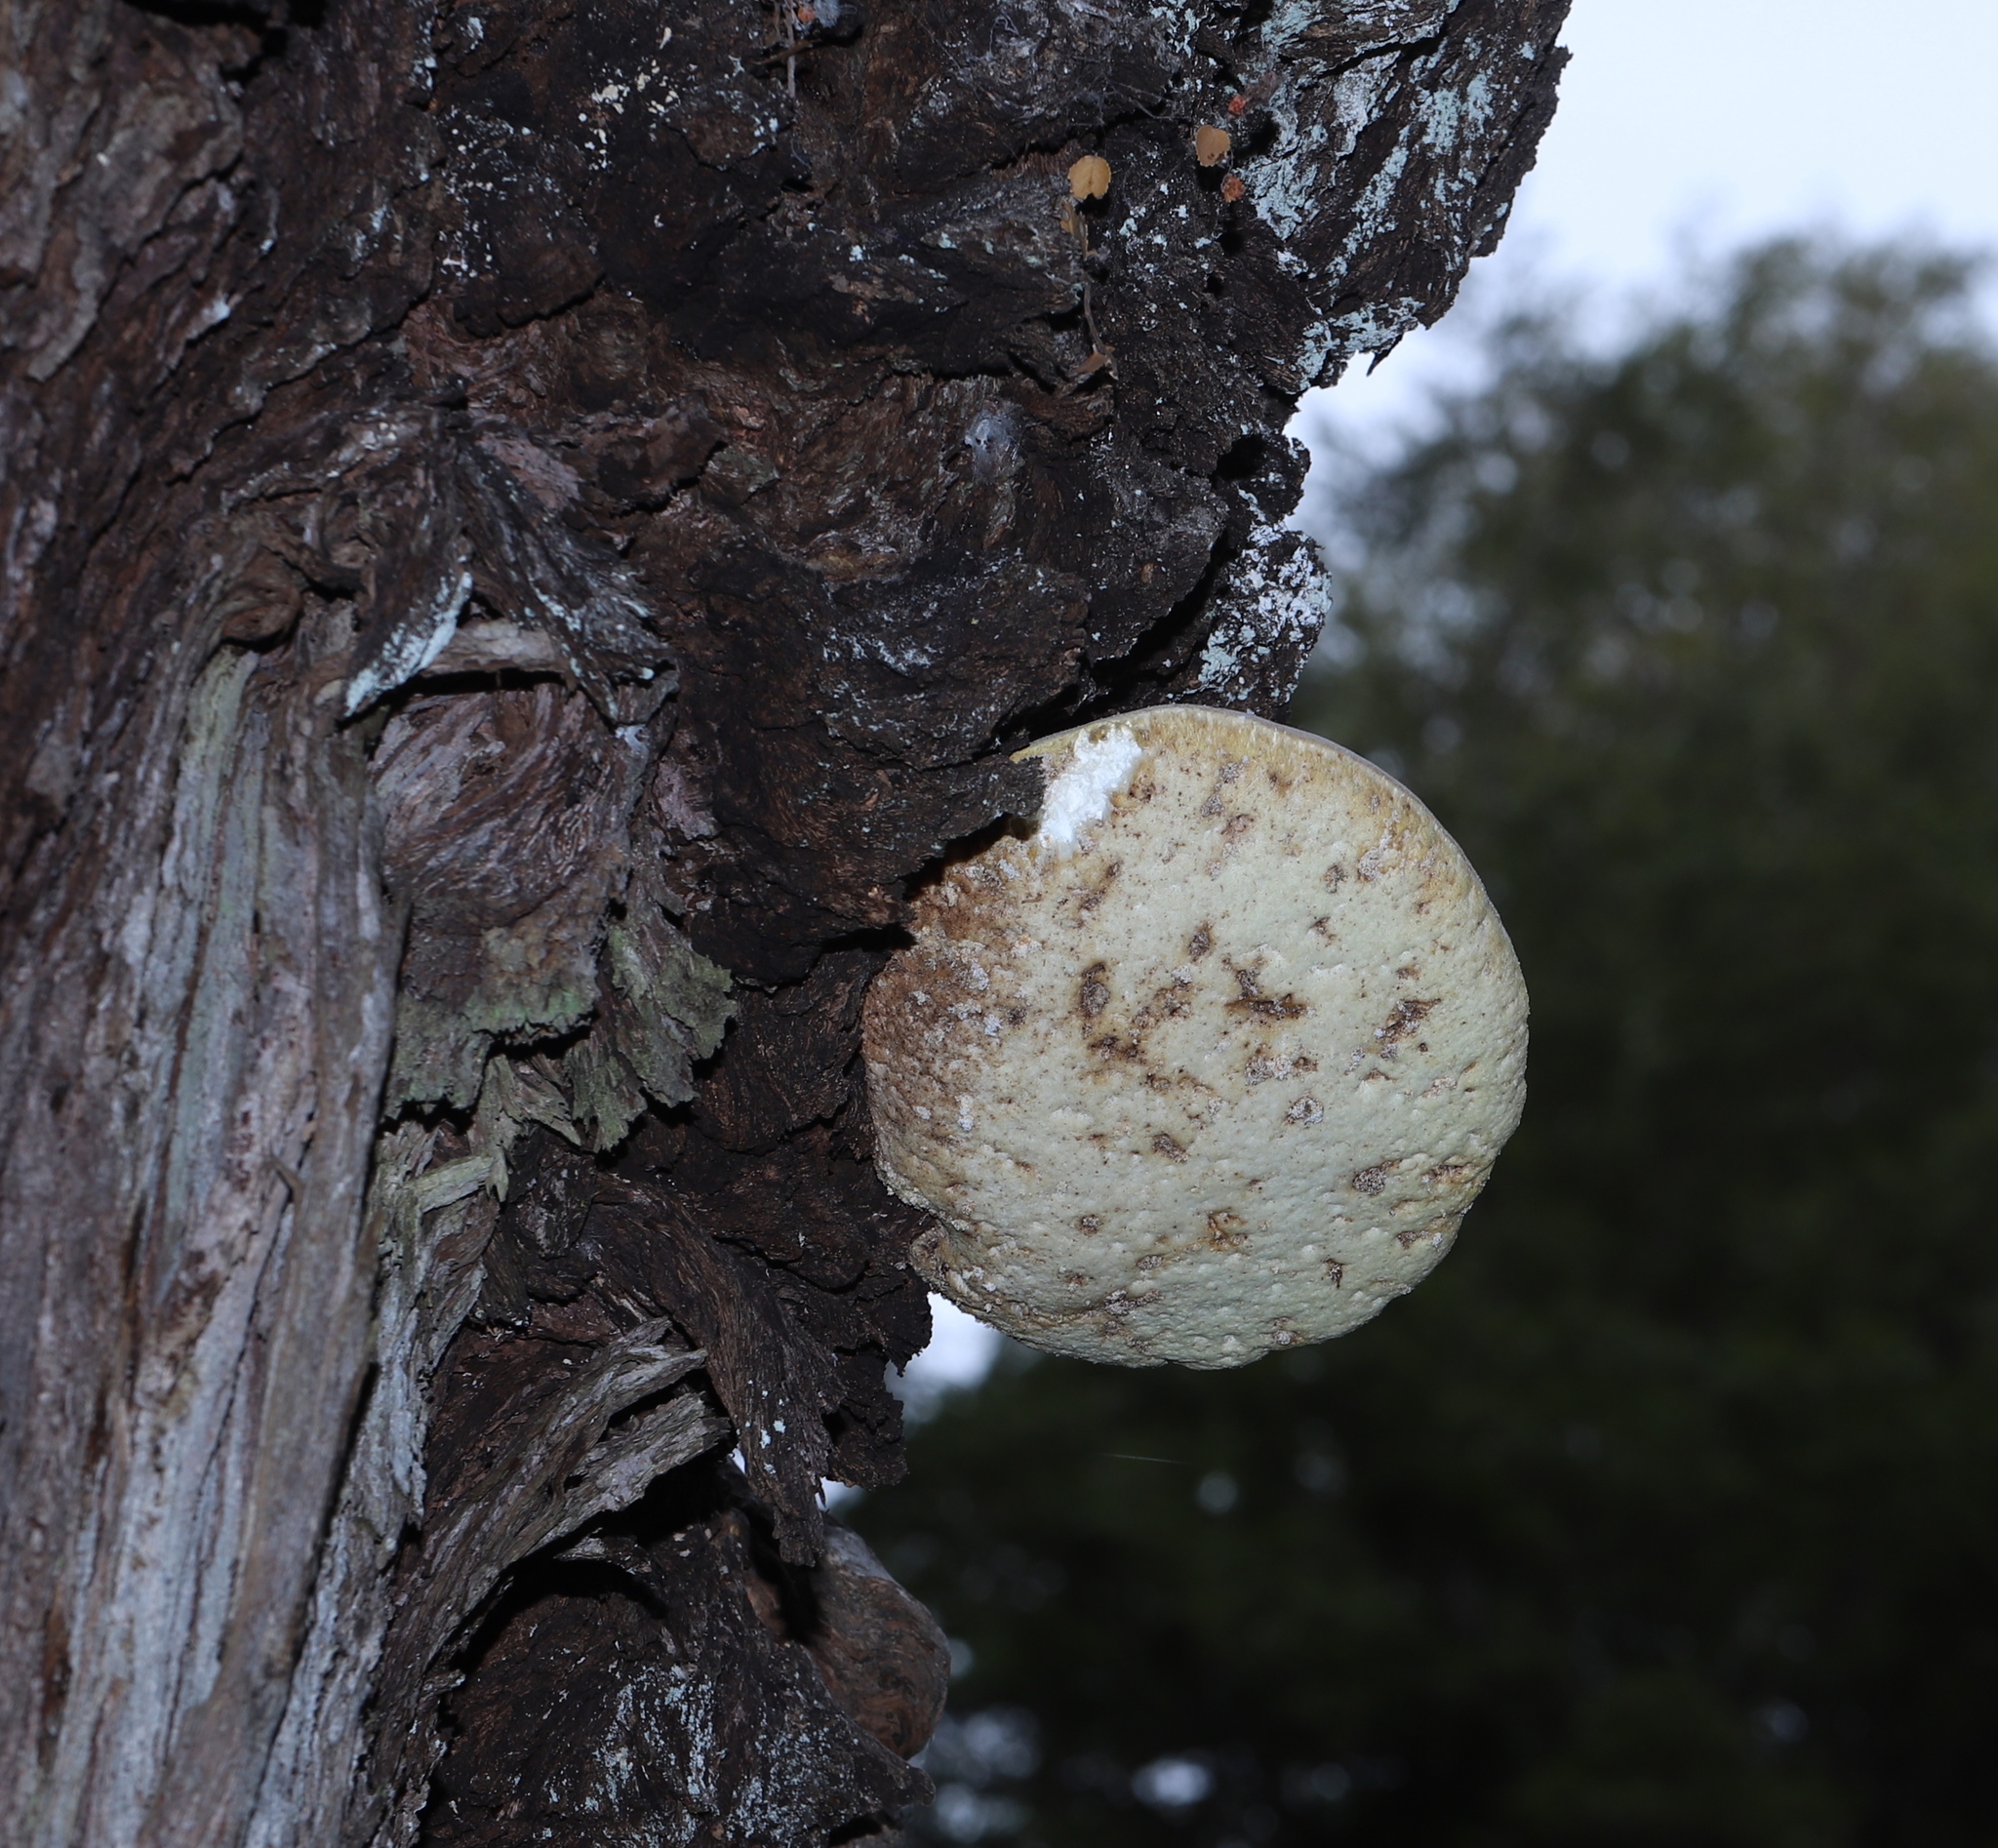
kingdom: Fungi
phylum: Basidiomycota
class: Agaricomycetes
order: Polyporales
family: Laetiporaceae
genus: Laetiporus
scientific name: Laetiporus portentosus
